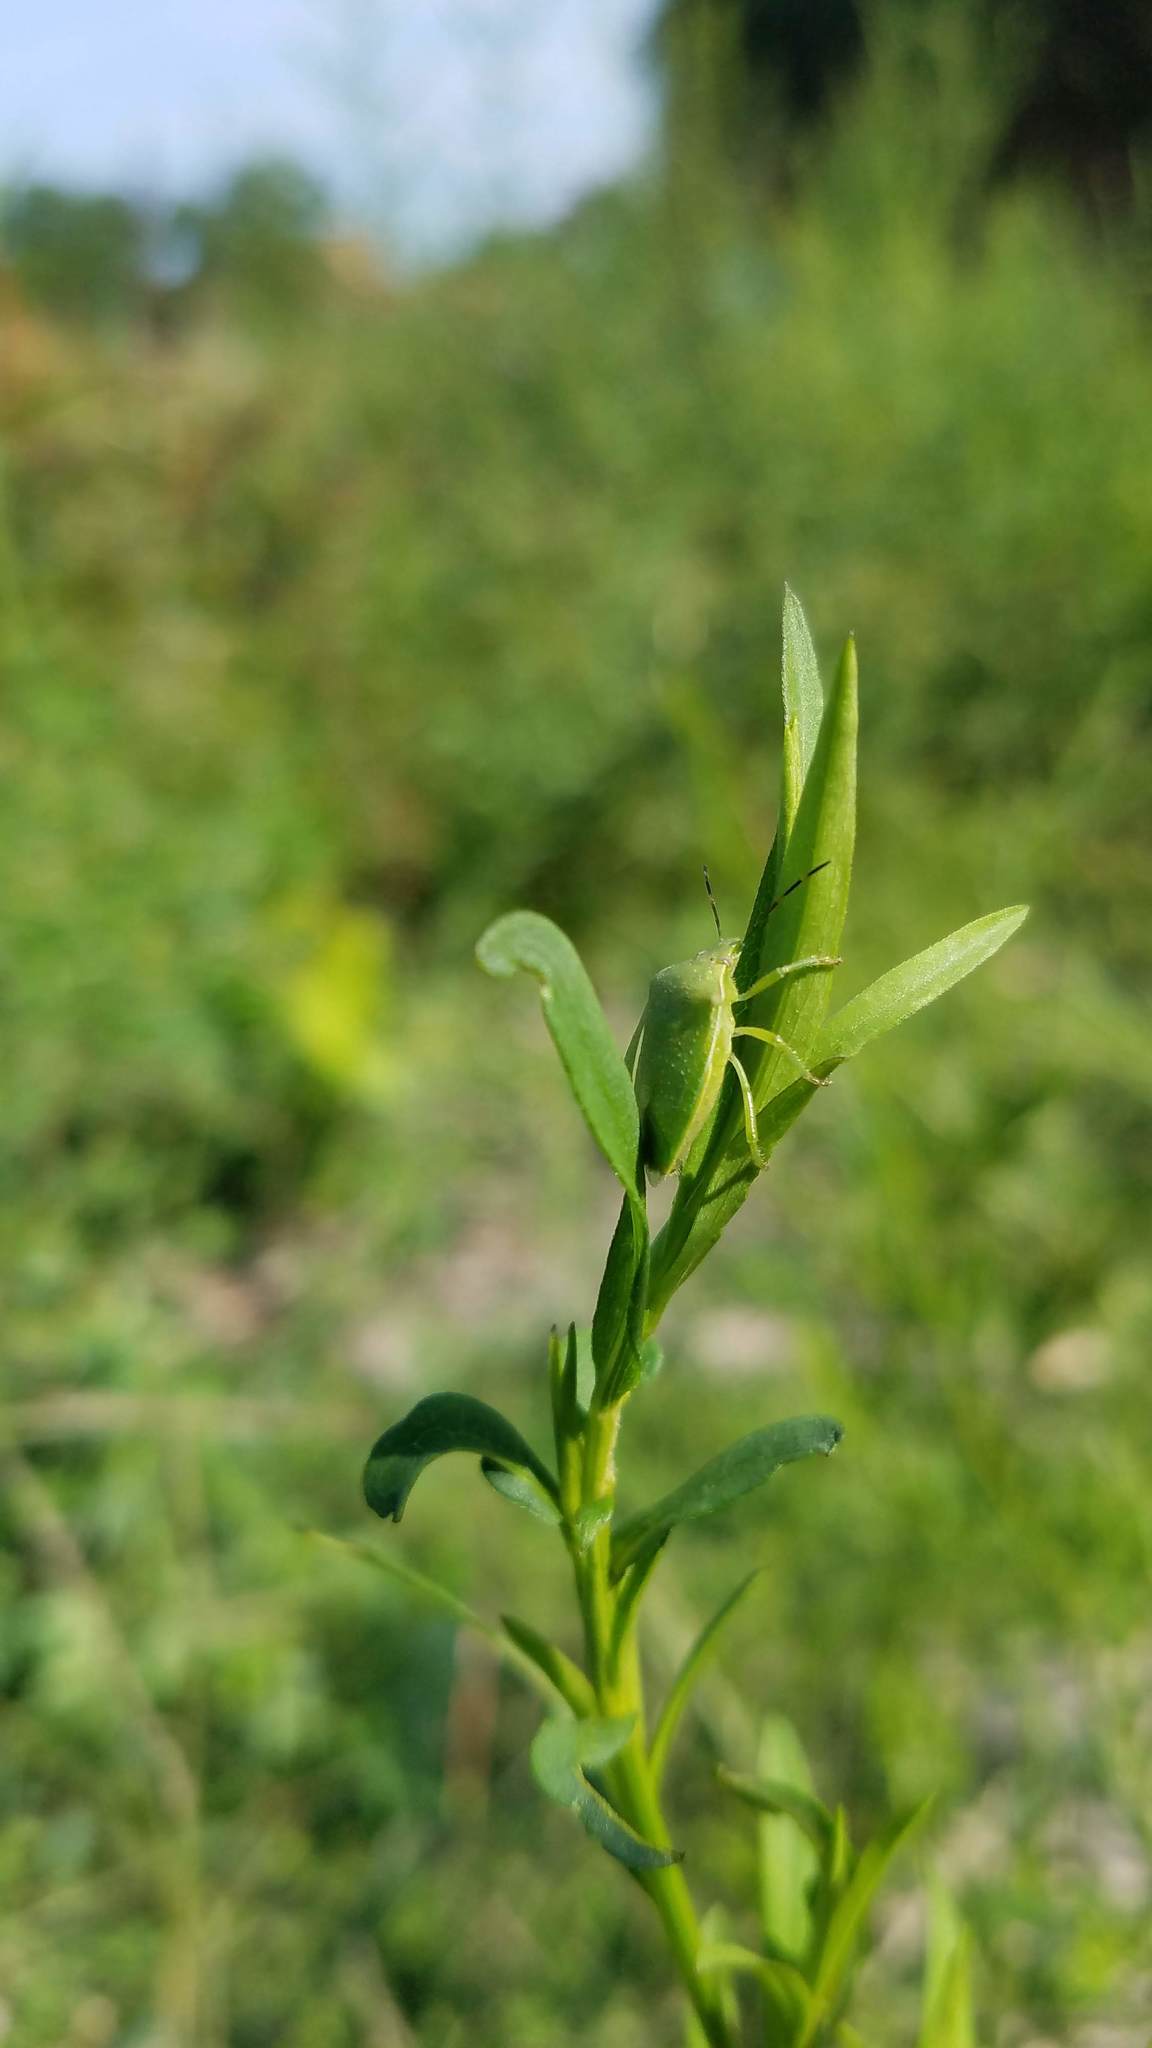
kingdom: Animalia
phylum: Arthropoda
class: Insecta
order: Hemiptera
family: Pentatomidae
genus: Chinavia
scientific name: Chinavia hilaris
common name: Green stink bug
